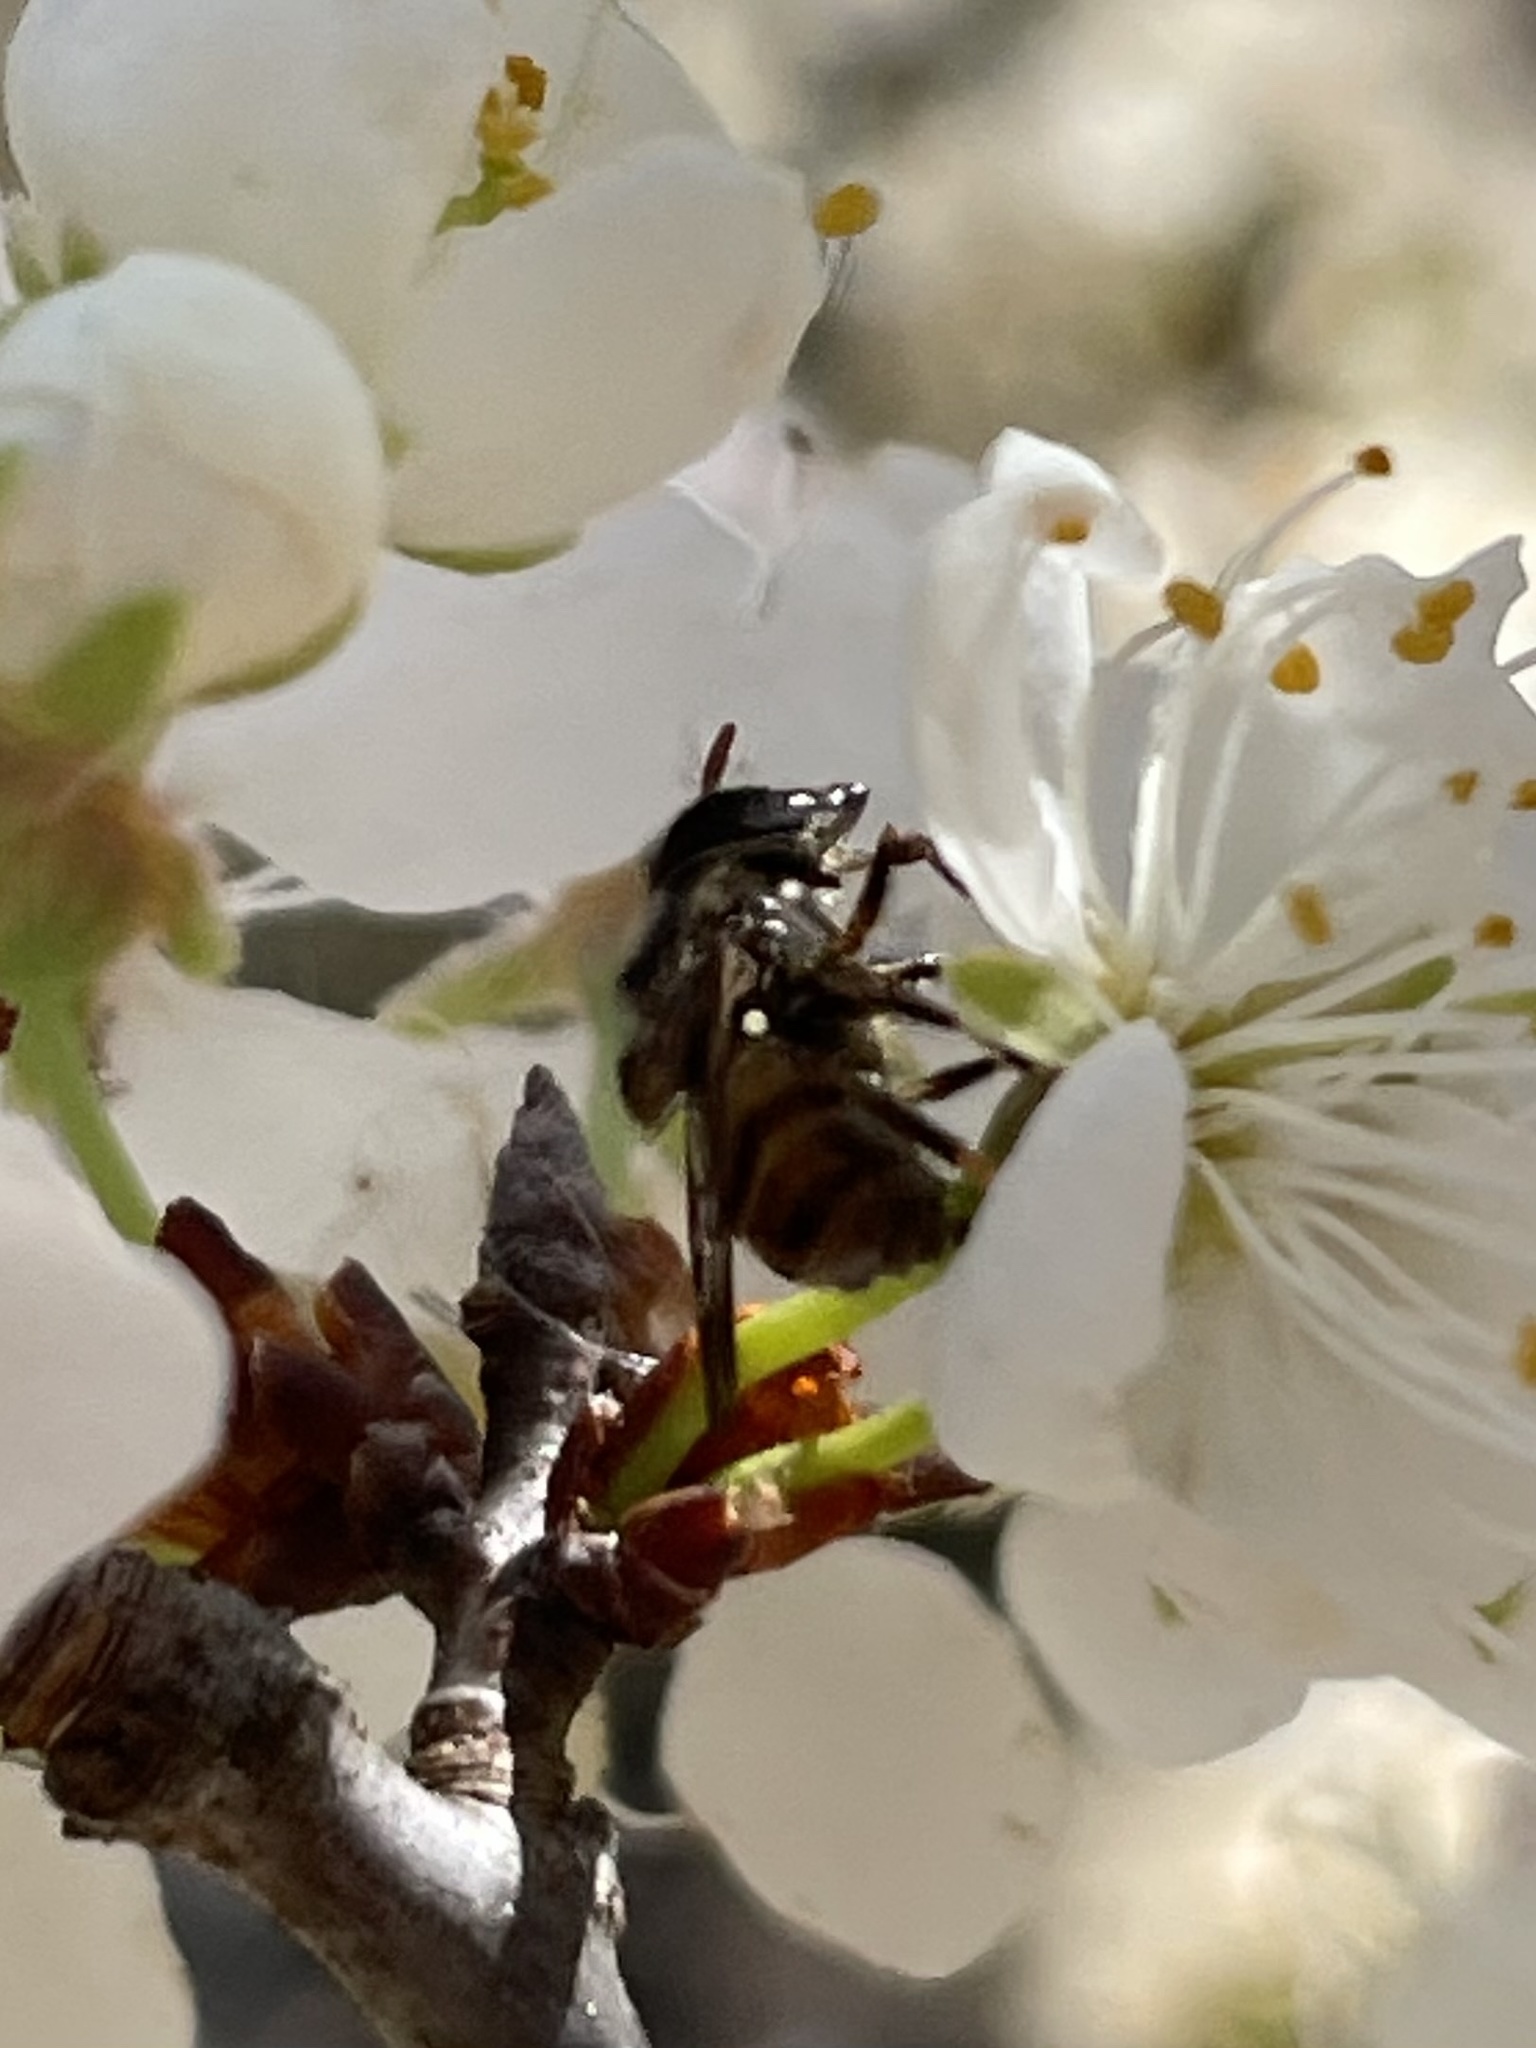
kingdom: Animalia
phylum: Arthropoda
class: Insecta
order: Diptera
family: Syrphidae
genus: Copestylum
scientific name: Copestylum tamaulipanum
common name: Syrphid fly
